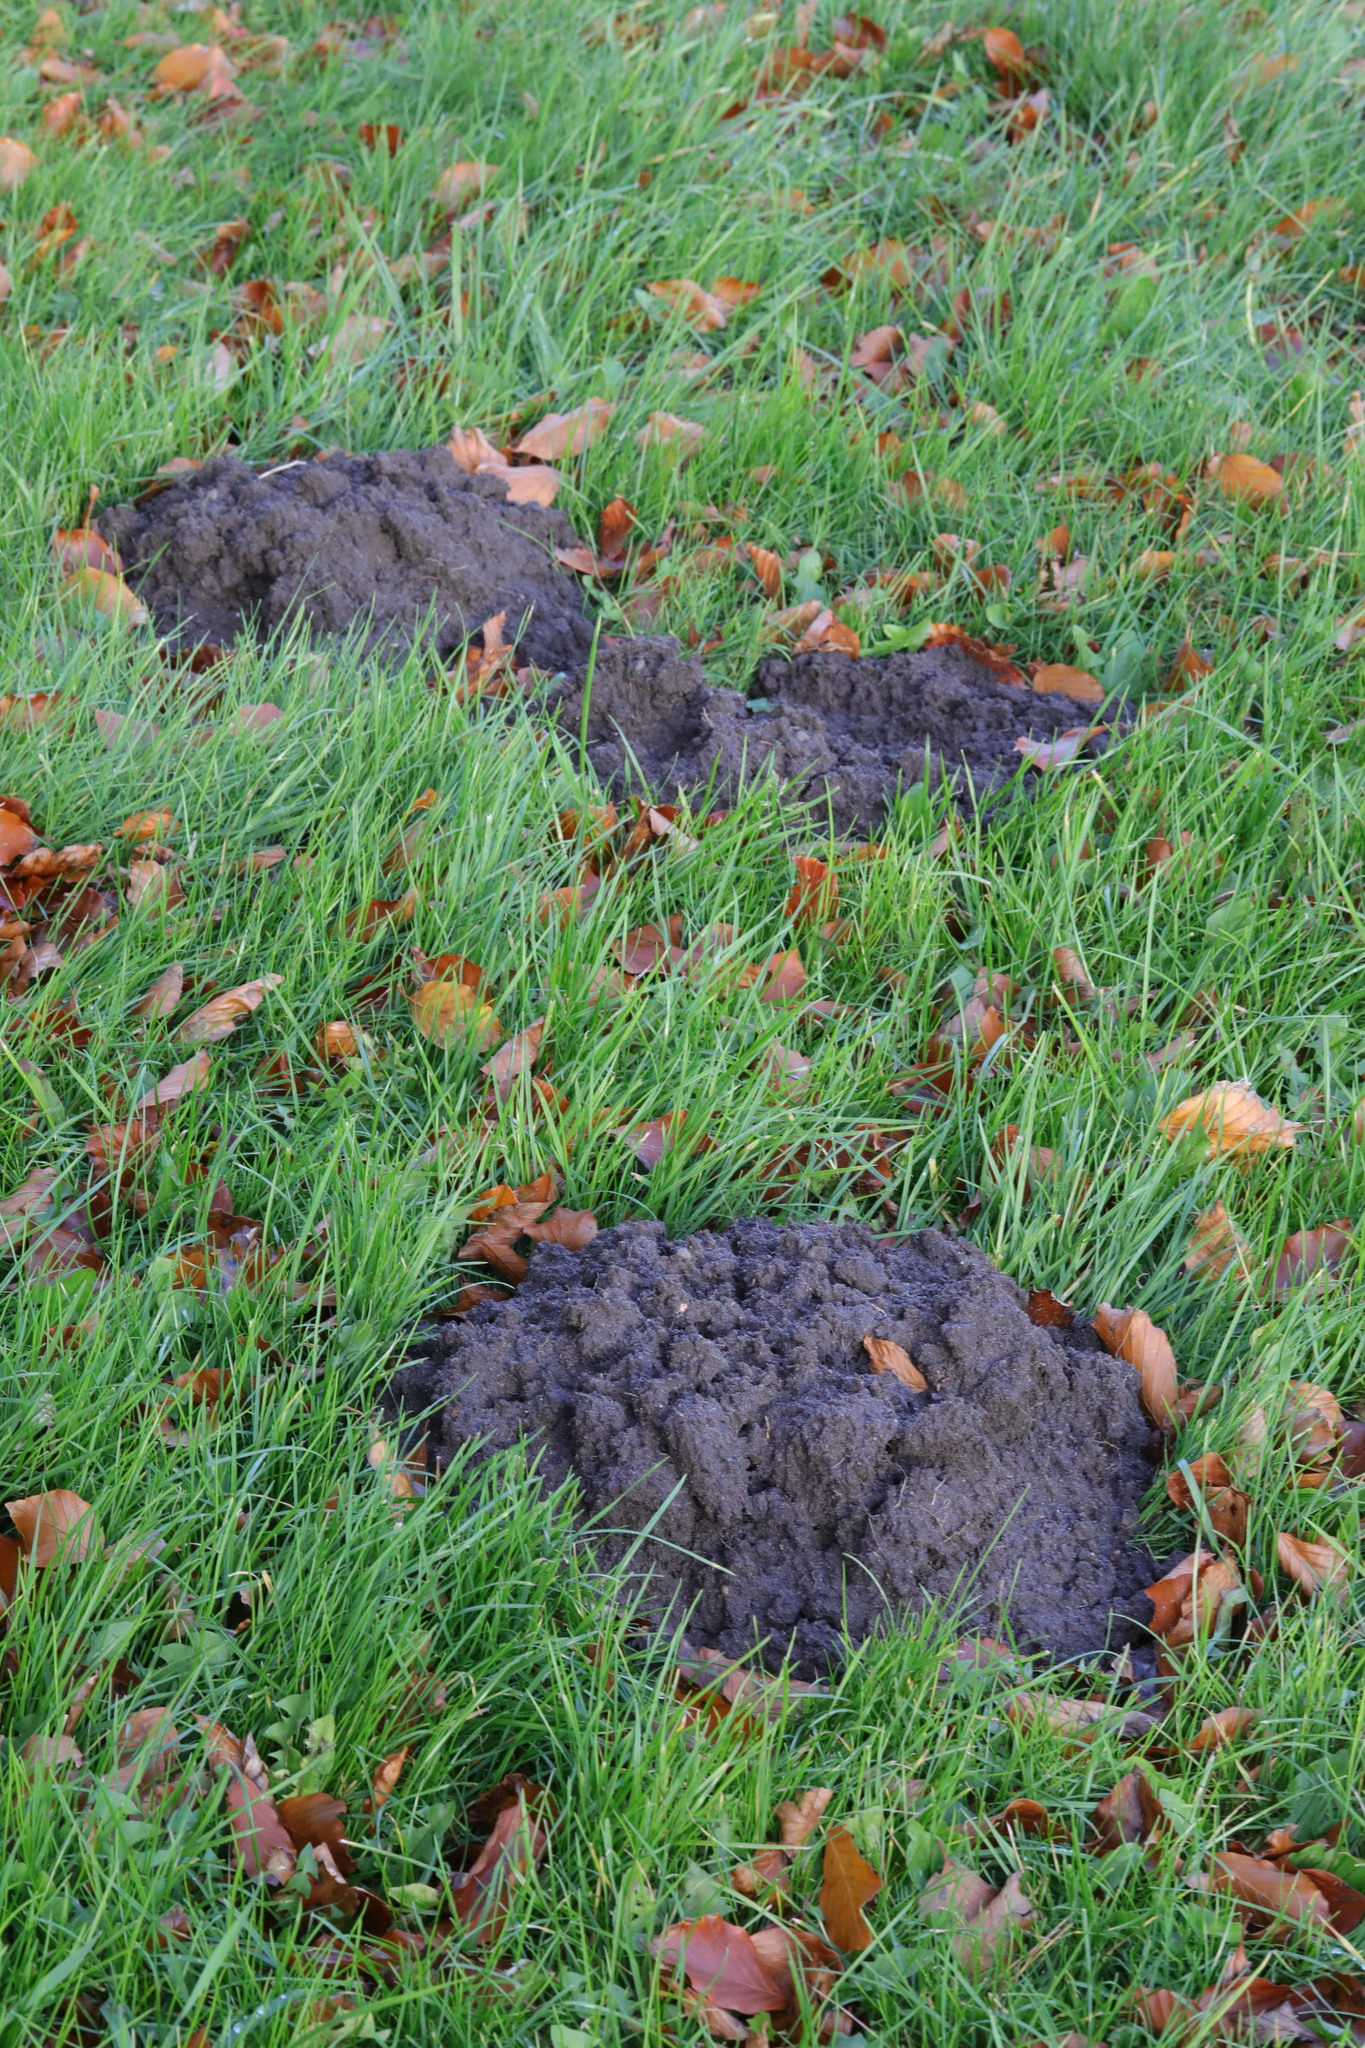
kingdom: Animalia
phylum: Chordata
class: Mammalia
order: Soricomorpha
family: Talpidae
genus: Talpa
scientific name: Talpa europaea
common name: European mole
